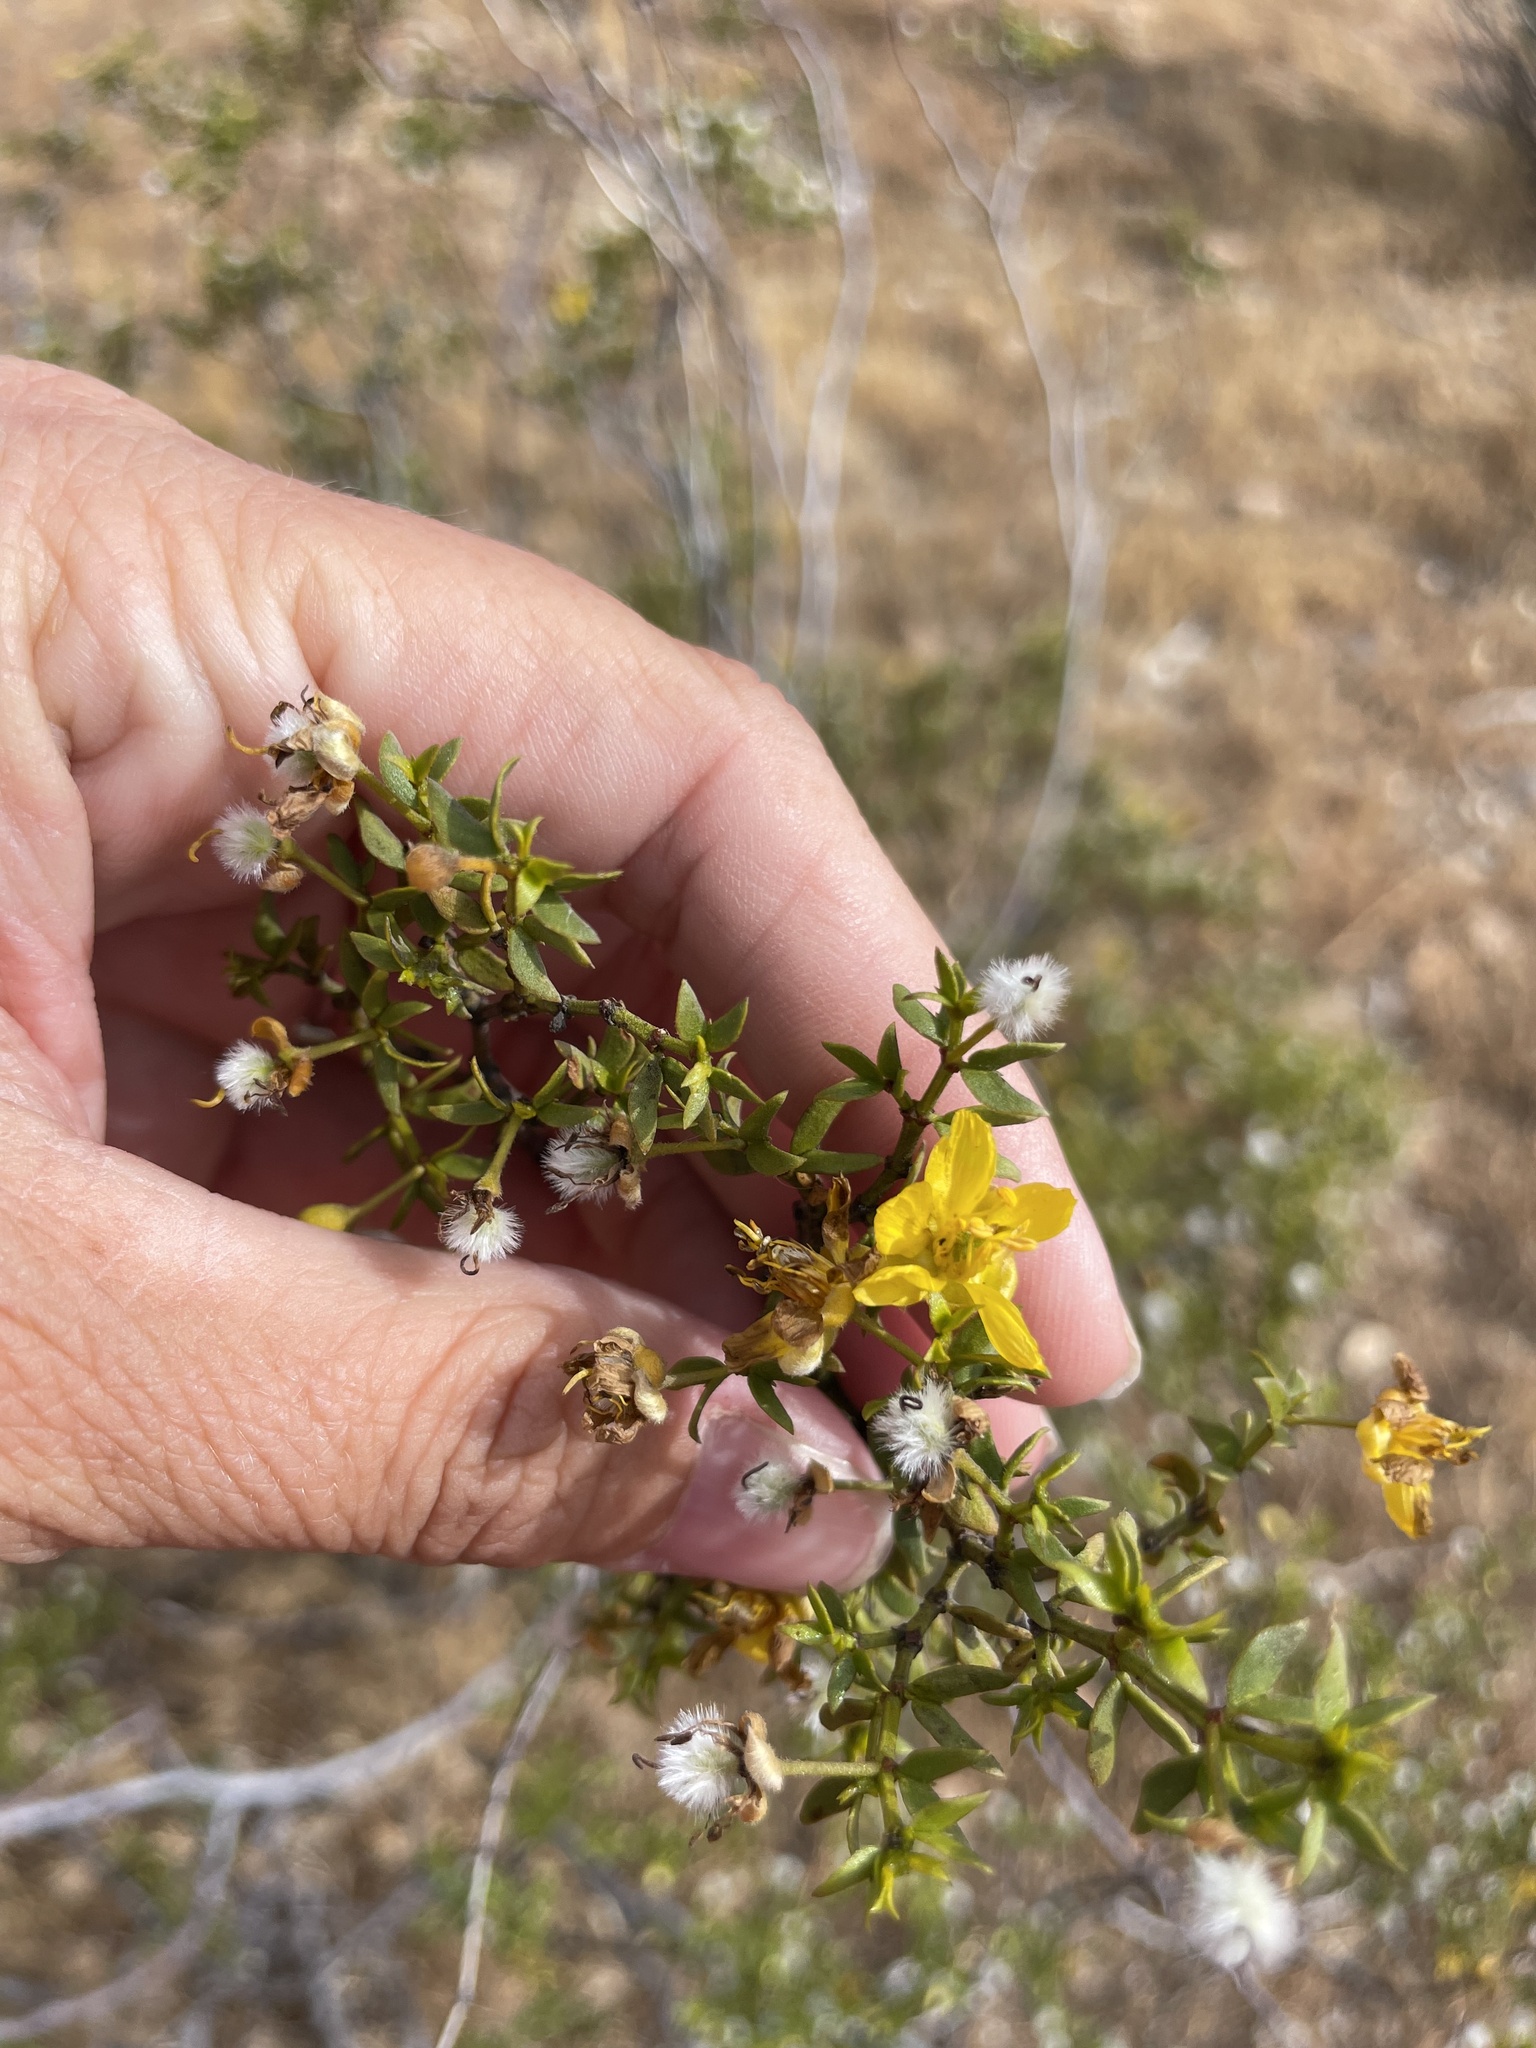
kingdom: Plantae
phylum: Tracheophyta
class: Magnoliopsida
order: Zygophyllales
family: Zygophyllaceae
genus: Larrea
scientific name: Larrea tridentata
